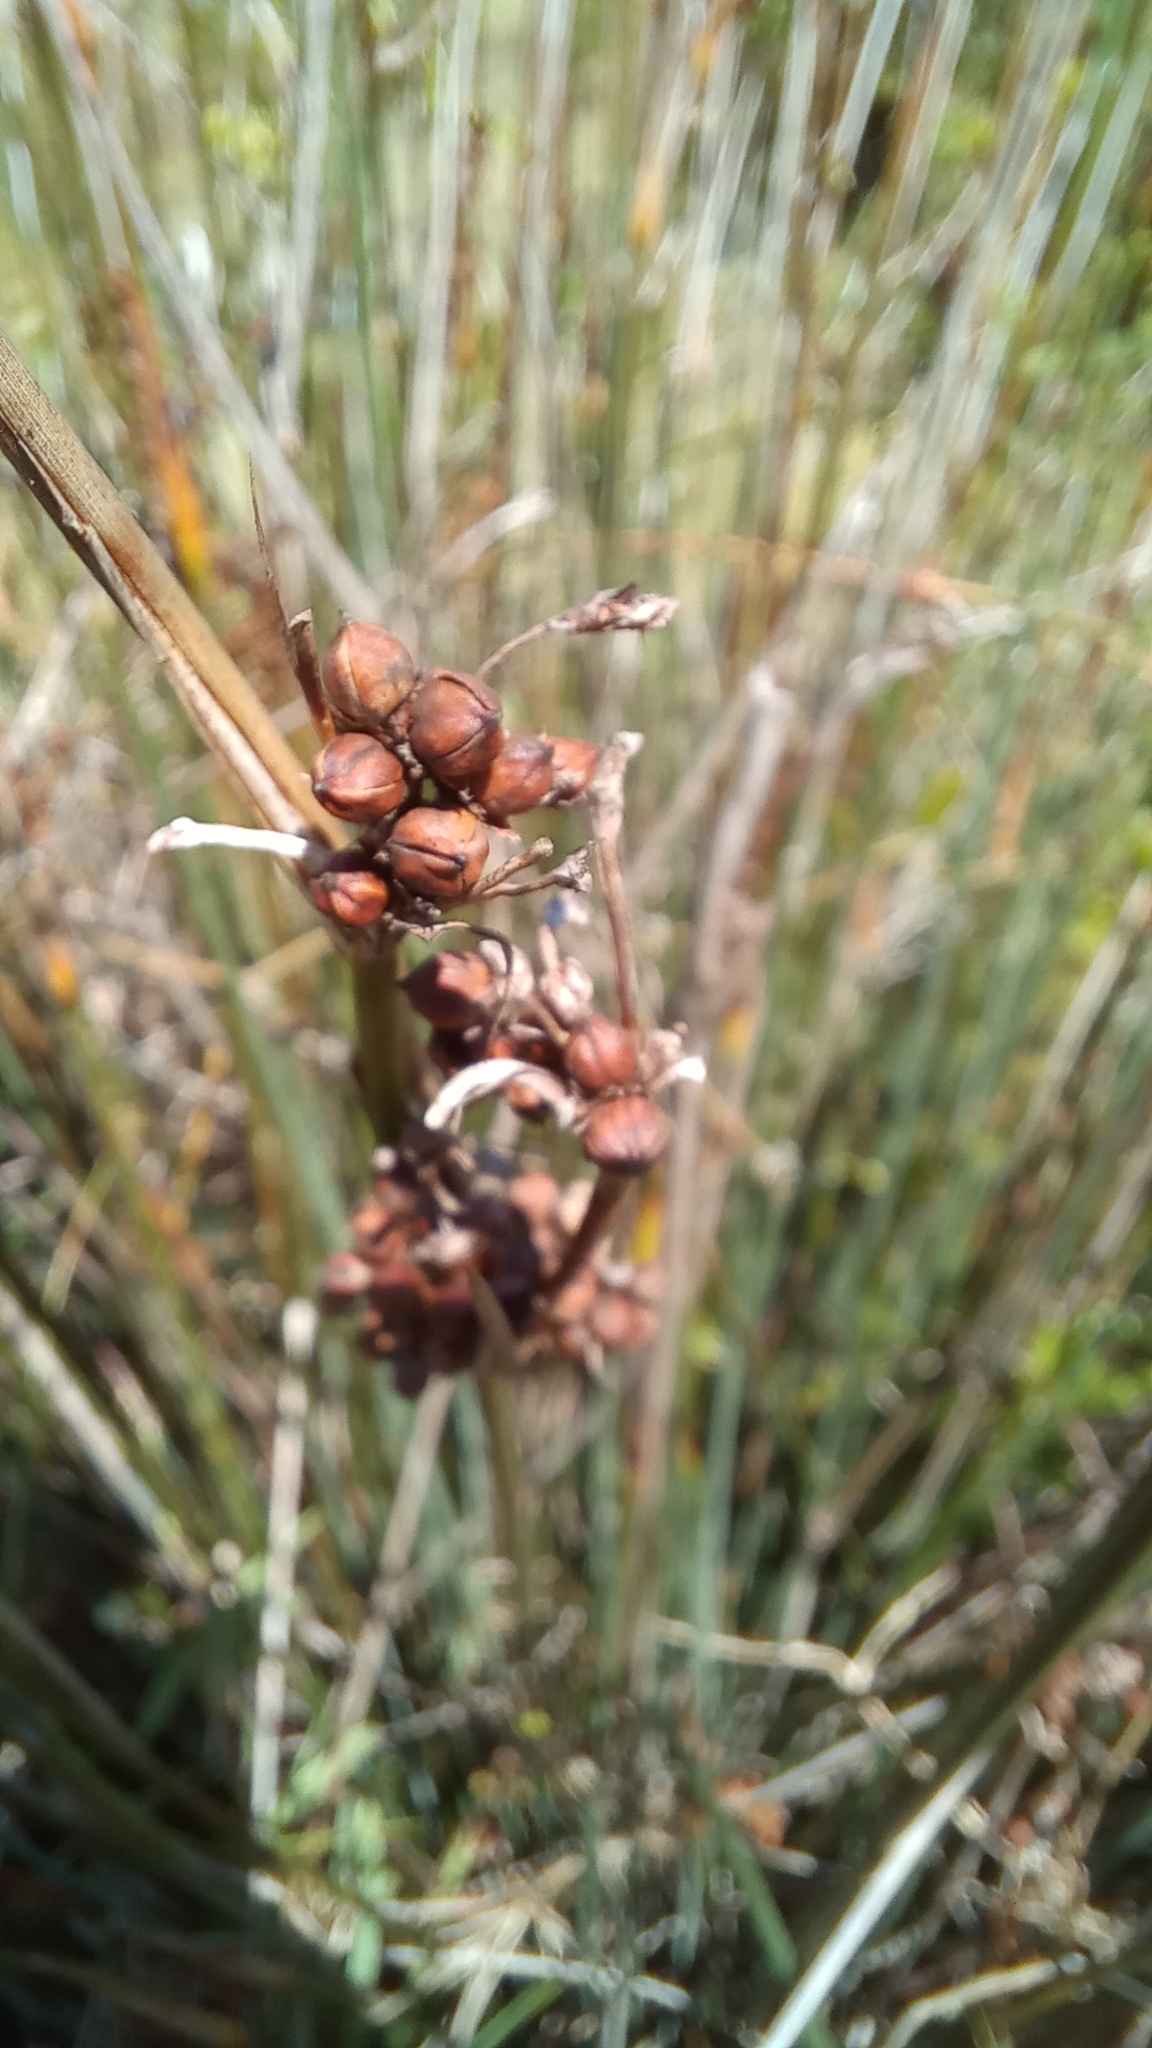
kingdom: Plantae
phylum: Tracheophyta
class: Liliopsida
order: Poales
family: Juncaceae
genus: Juncus
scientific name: Juncus acutus
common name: Sharp rush
